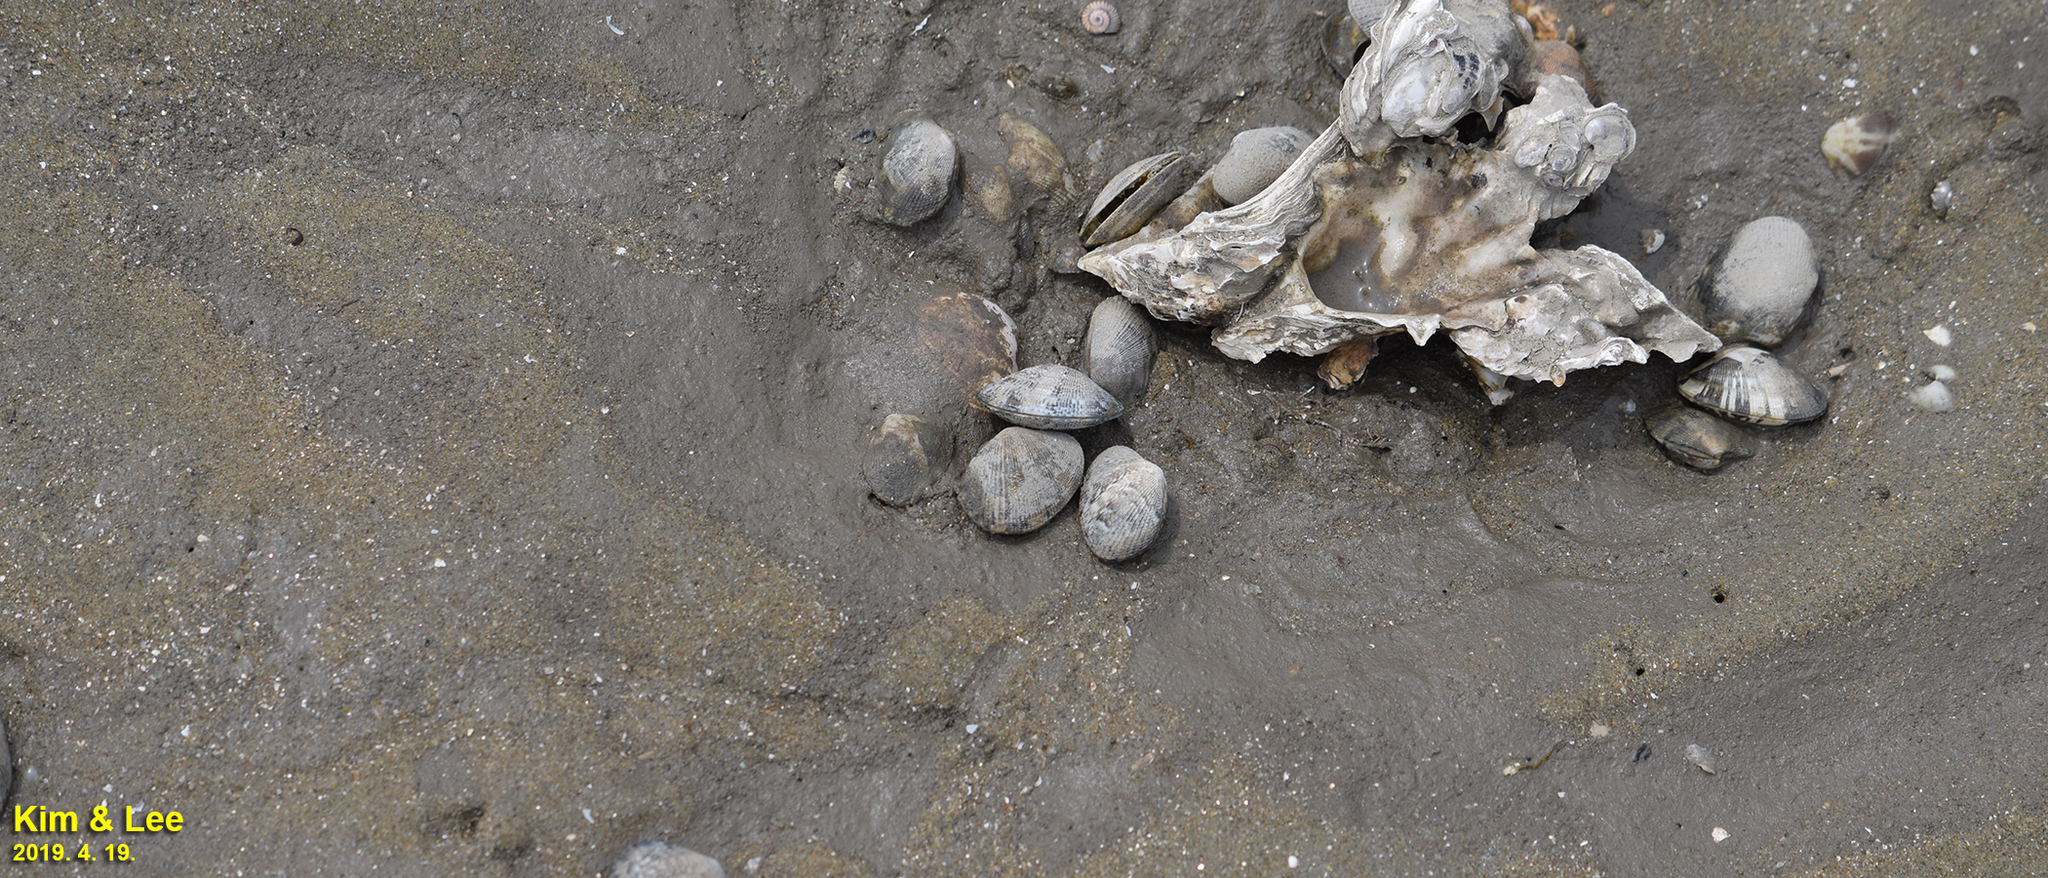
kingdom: Animalia
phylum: Mollusca
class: Bivalvia
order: Venerida
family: Veneridae
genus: Ruditapes
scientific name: Ruditapes philippinarum
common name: Manila clam
